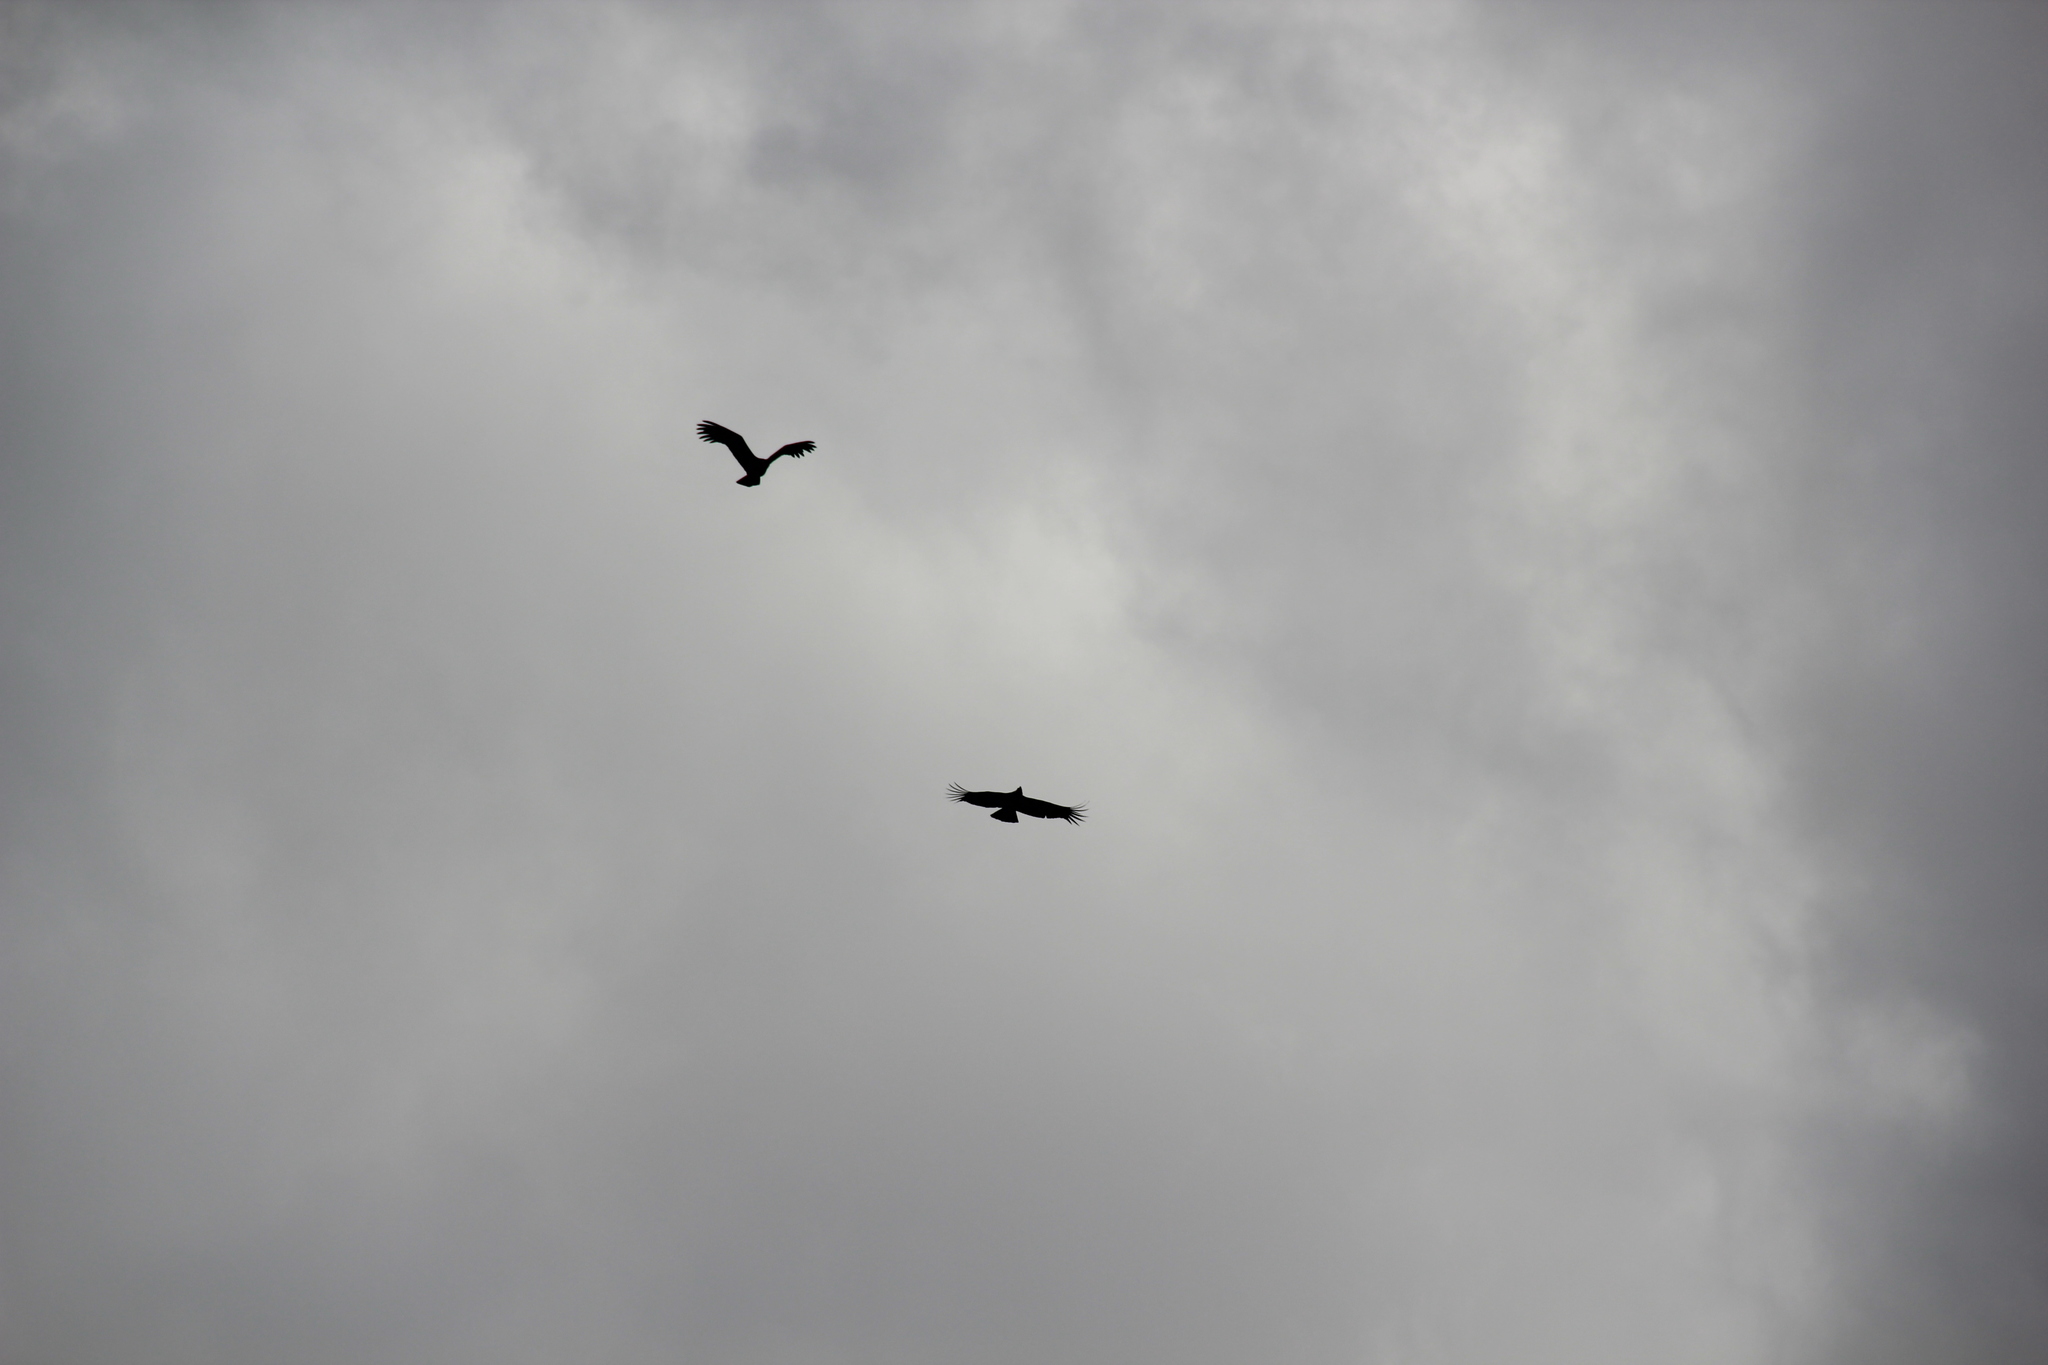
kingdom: Animalia
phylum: Chordata
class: Aves
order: Accipitriformes
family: Cathartidae
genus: Vultur
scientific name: Vultur gryphus
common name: Andean condor
